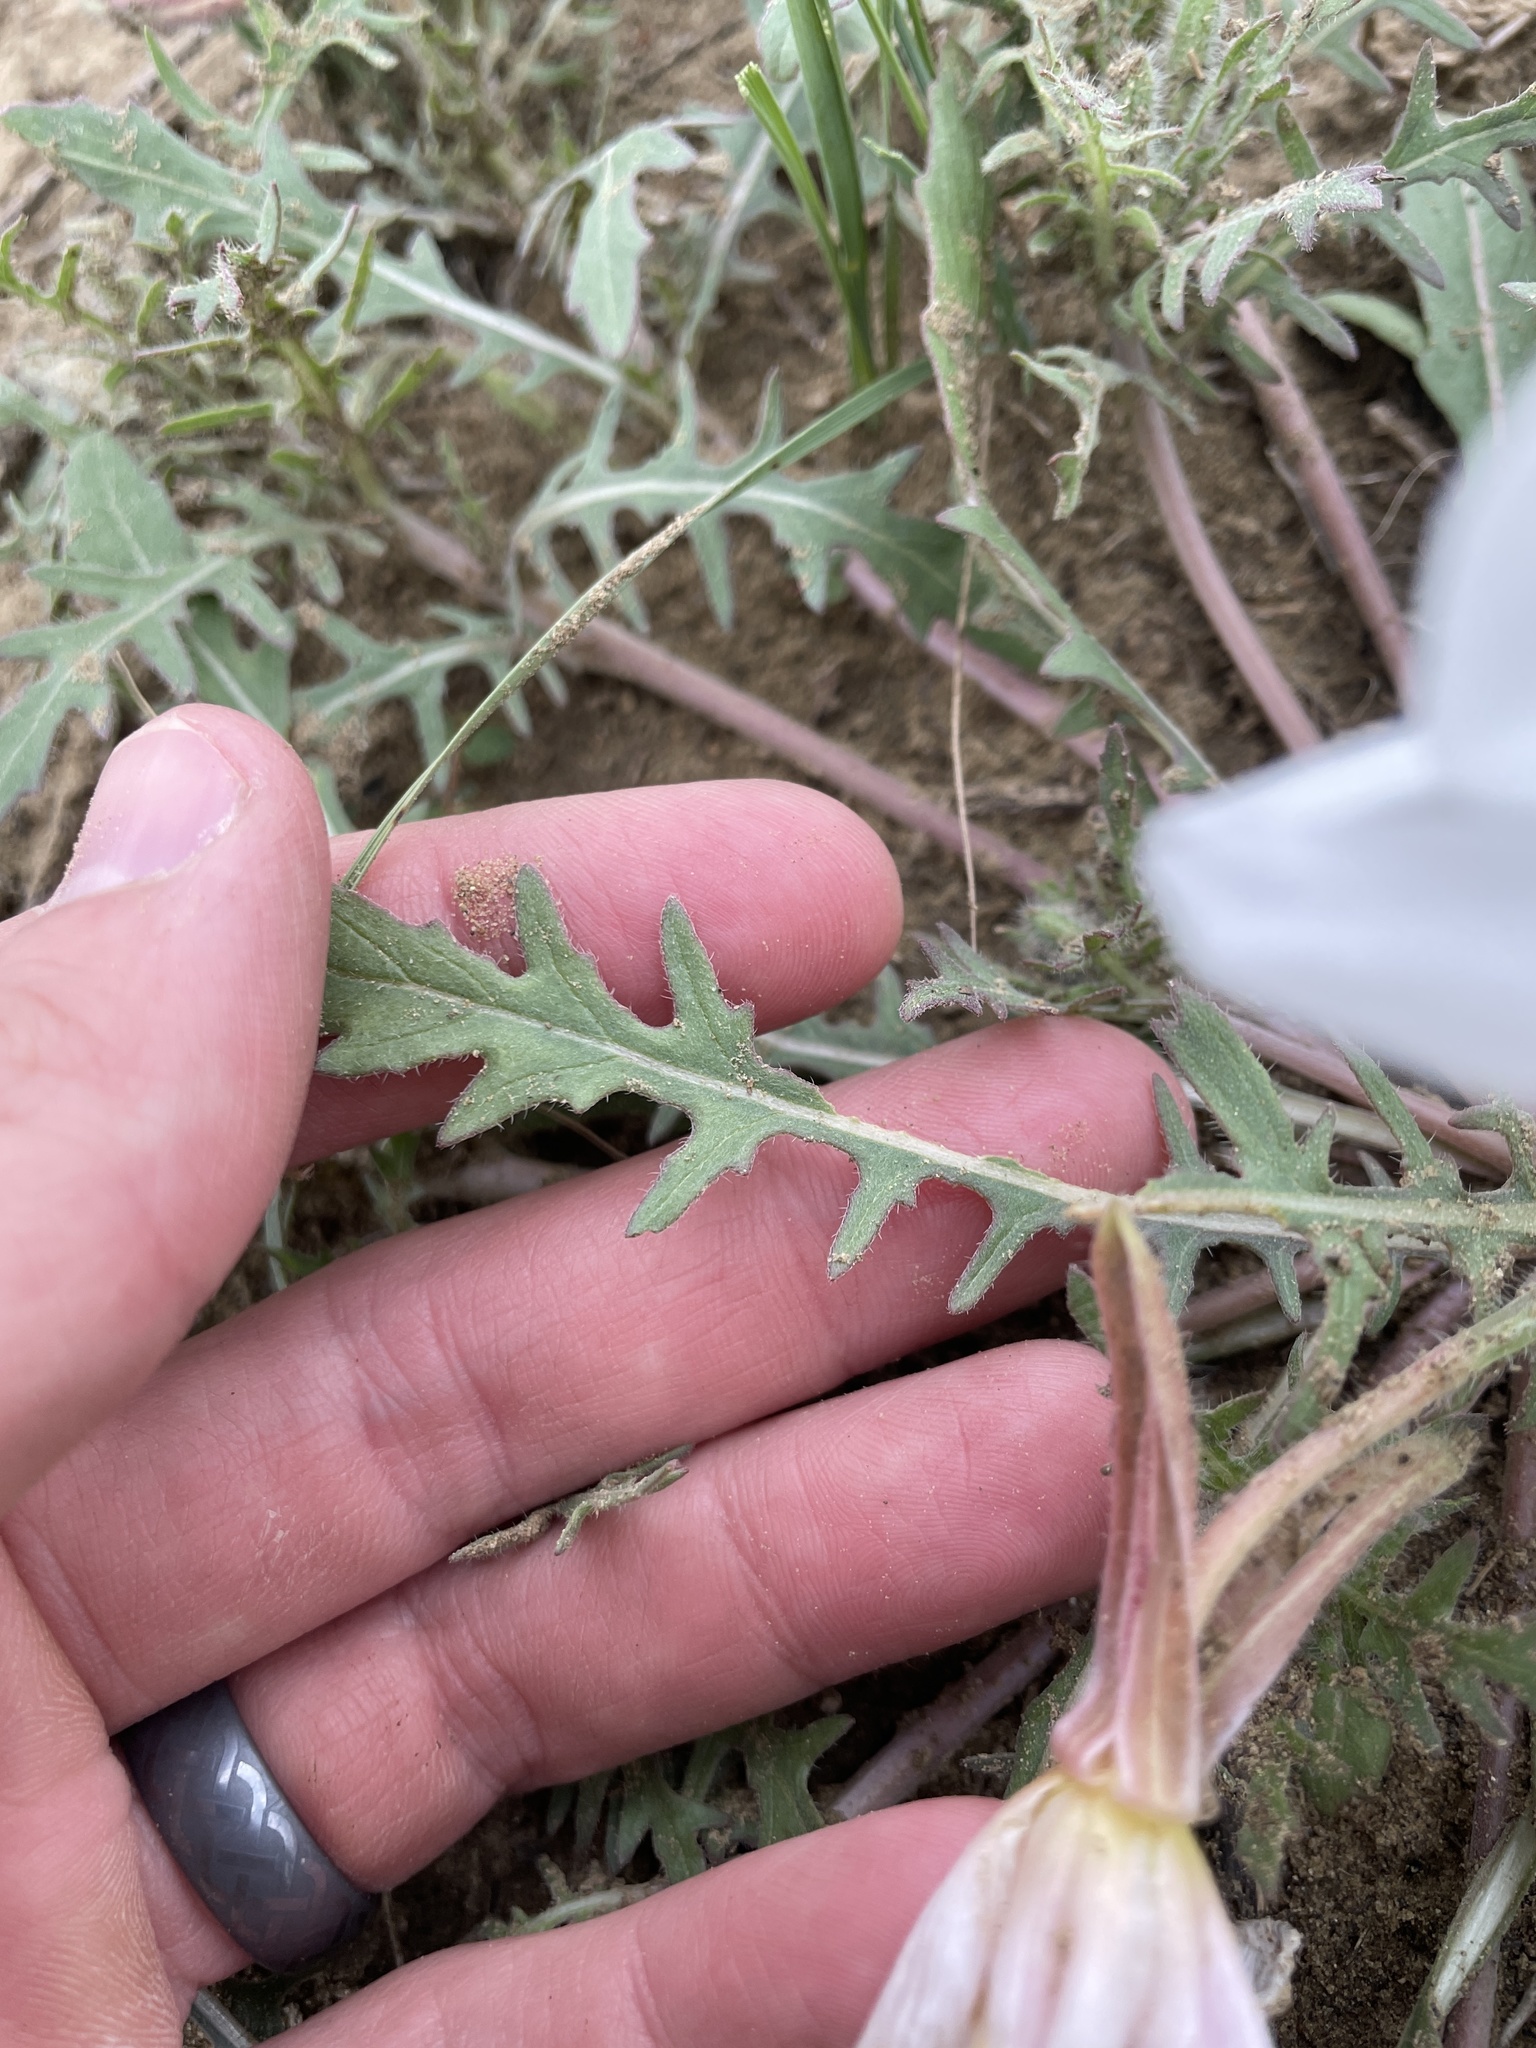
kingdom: Plantae
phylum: Tracheophyta
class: Magnoliopsida
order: Myrtales
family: Onagraceae
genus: Oenothera
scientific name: Oenothera albicaulis
